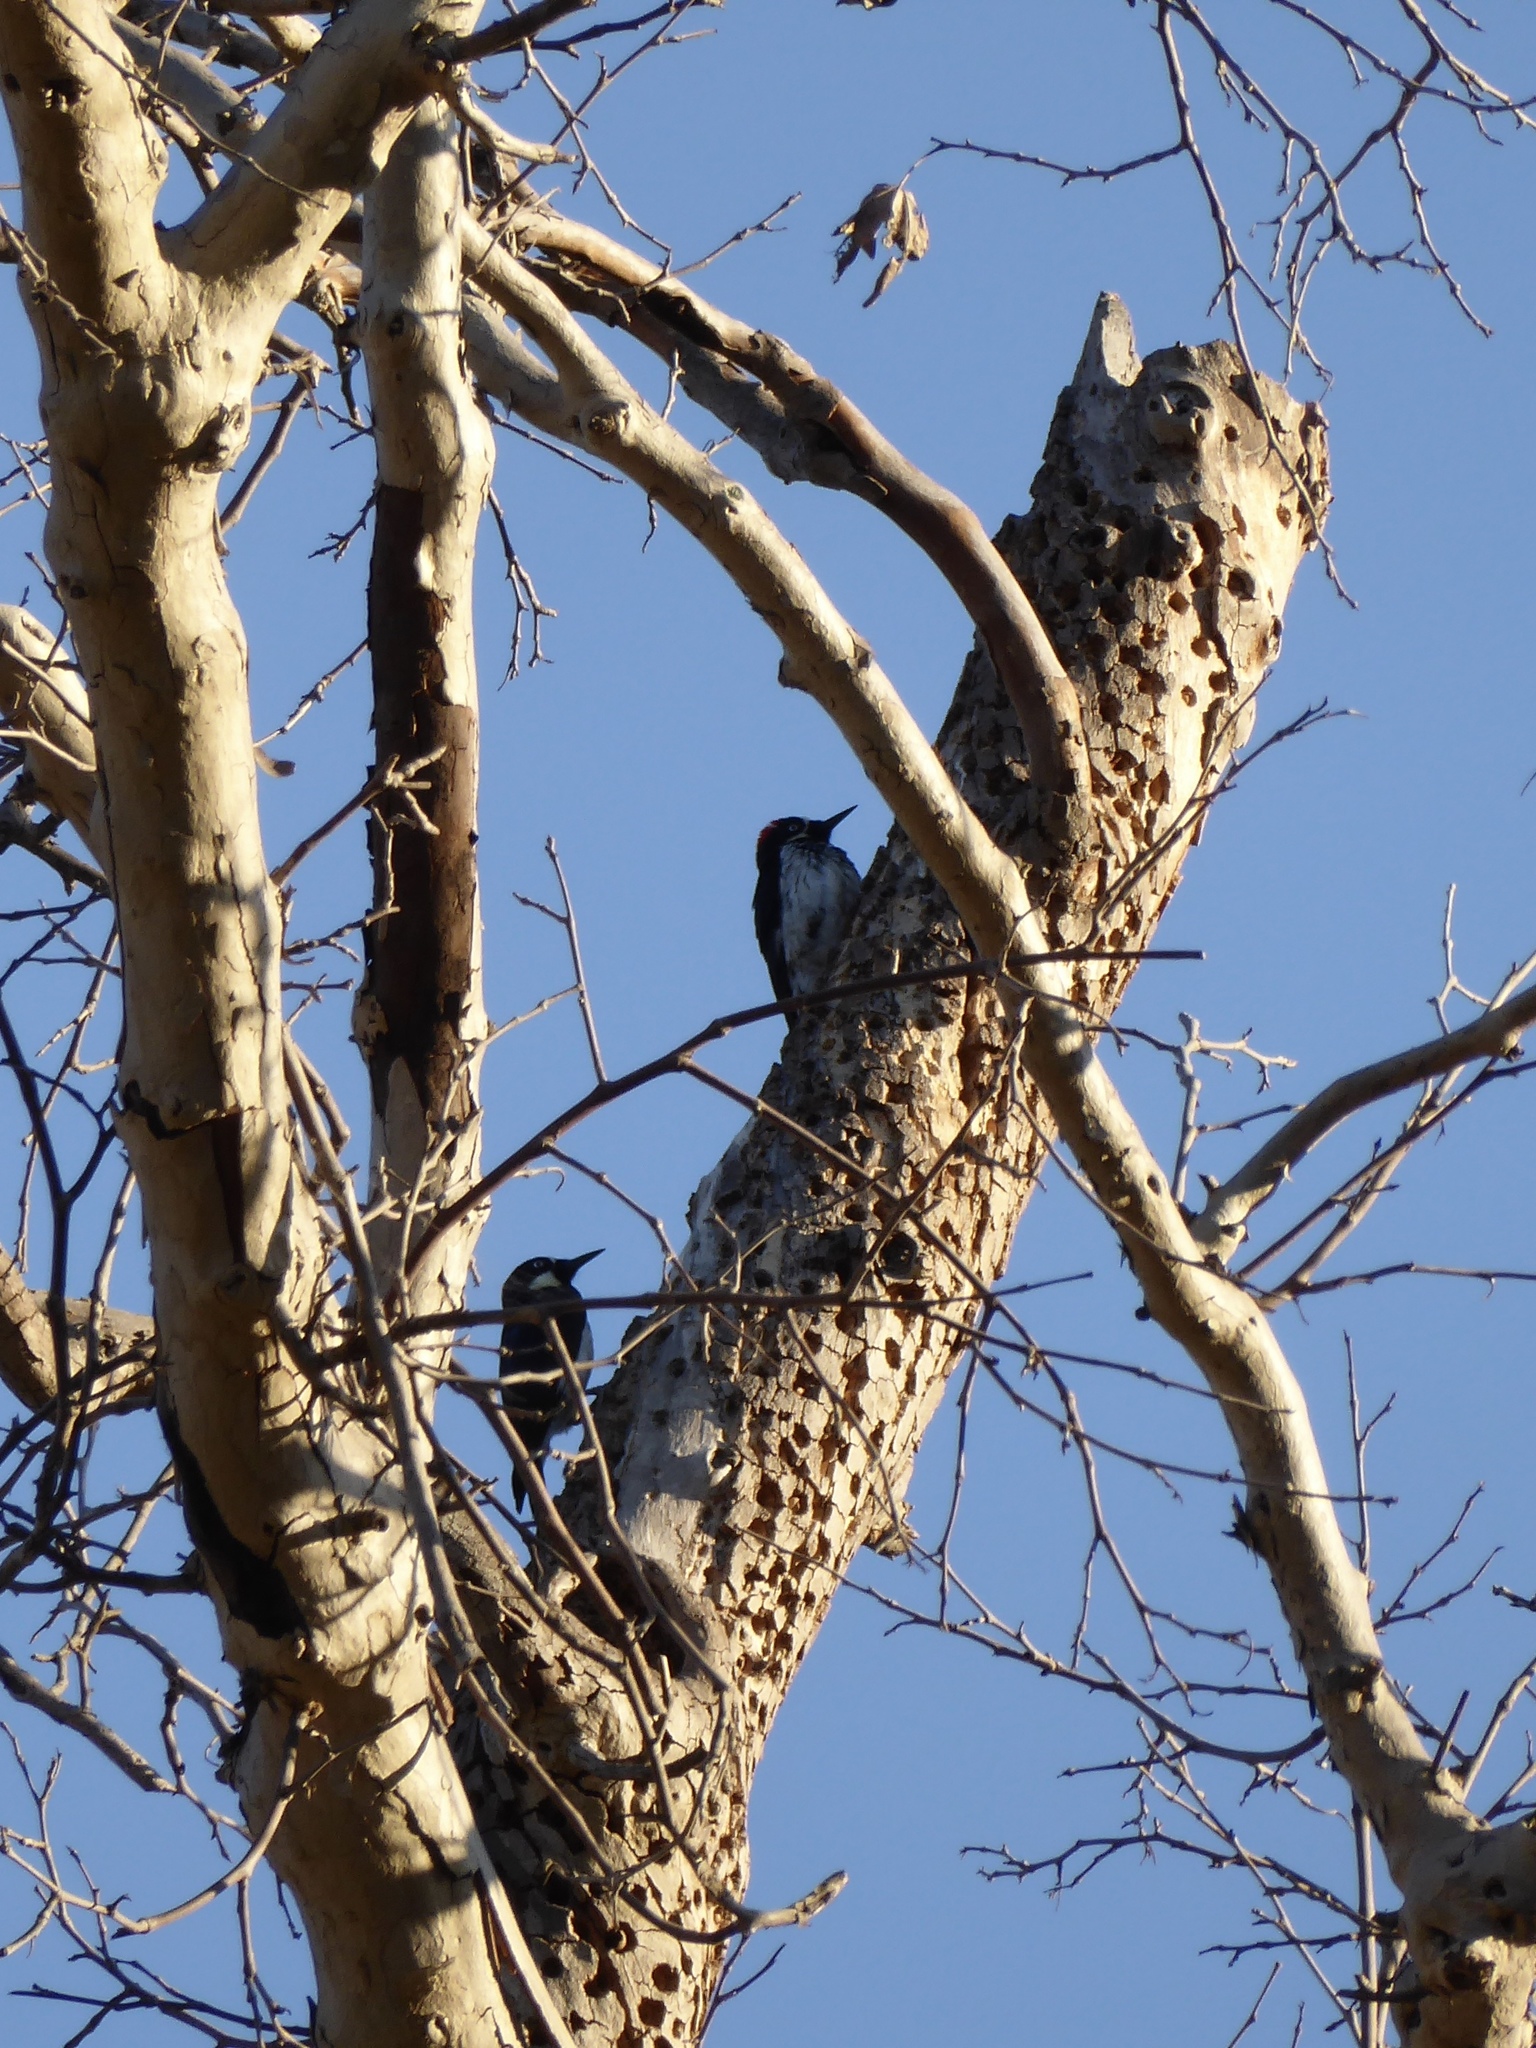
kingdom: Animalia
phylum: Chordata
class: Aves
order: Piciformes
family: Picidae
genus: Melanerpes
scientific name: Melanerpes formicivorus
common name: Acorn woodpecker
